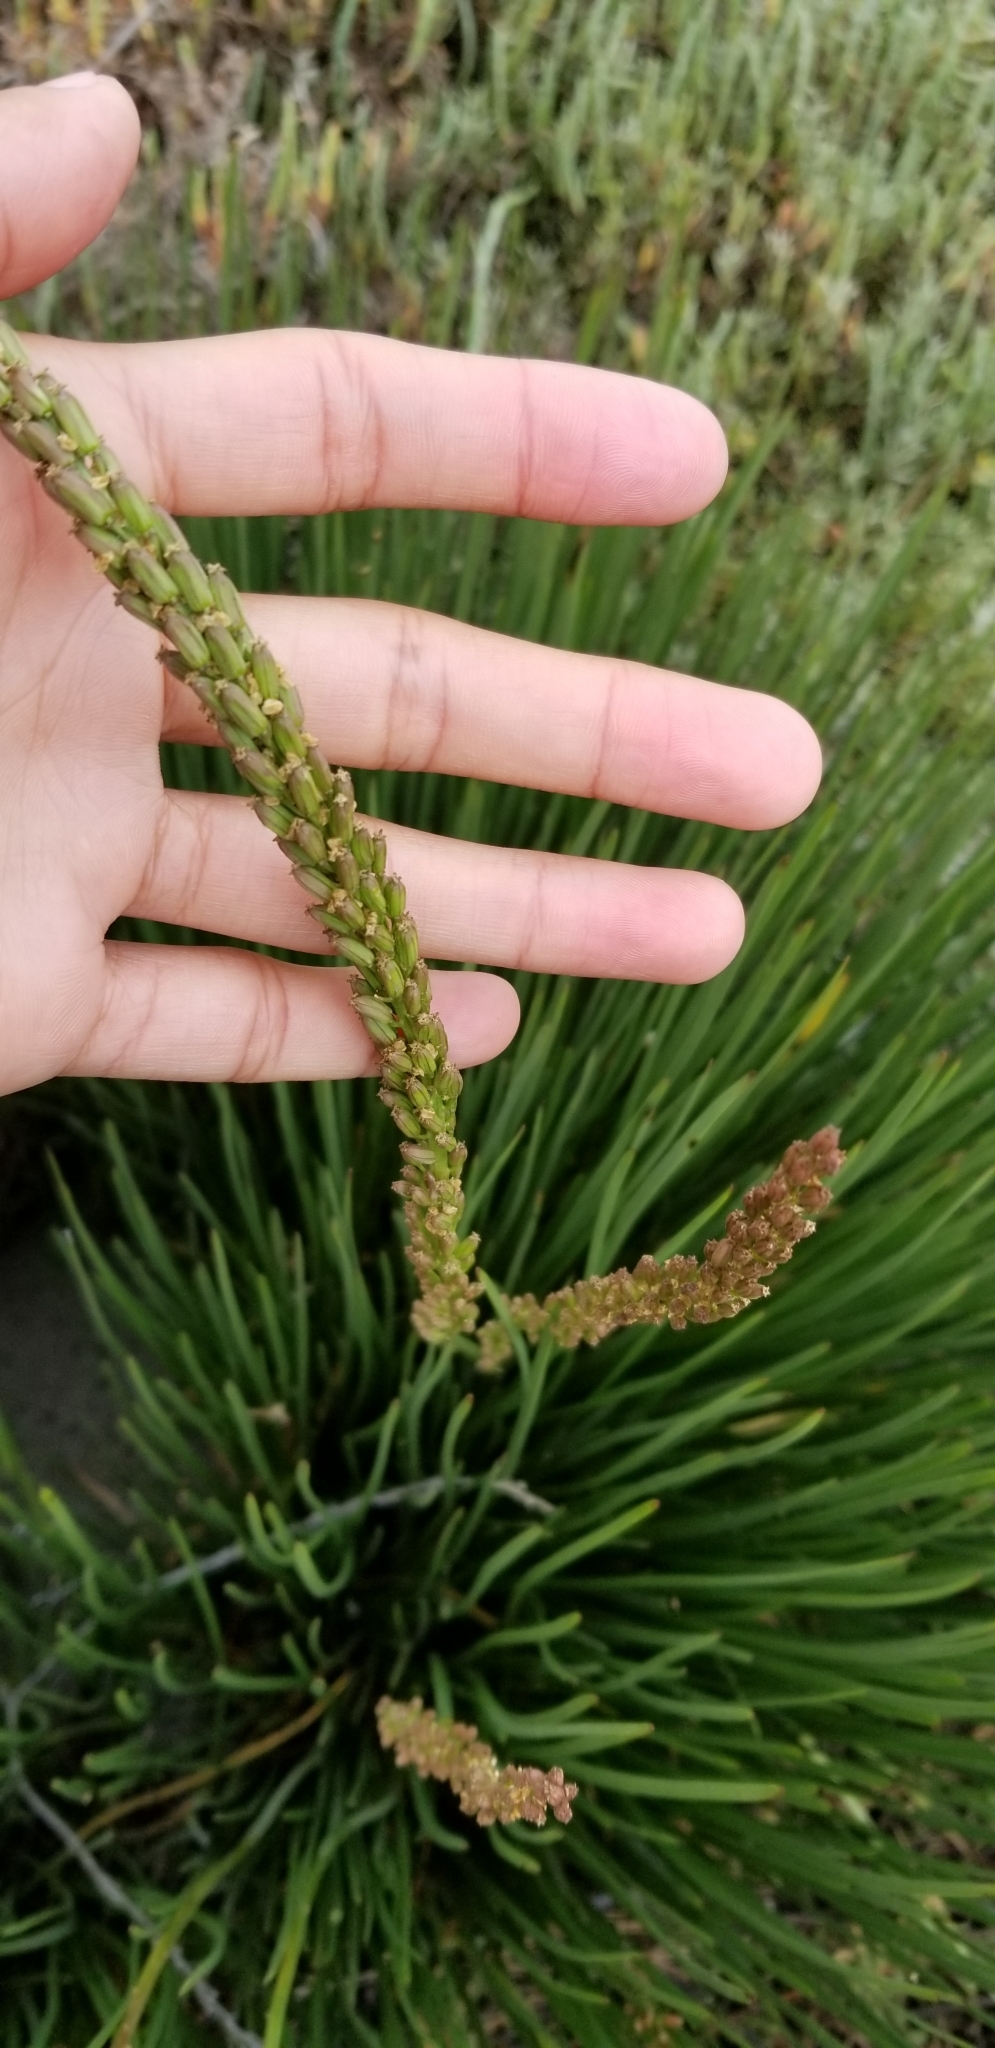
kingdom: Plantae
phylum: Tracheophyta
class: Liliopsida
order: Alismatales
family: Juncaginaceae
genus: Triglochin
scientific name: Triglochin maritima
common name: Sea arrowgrass
